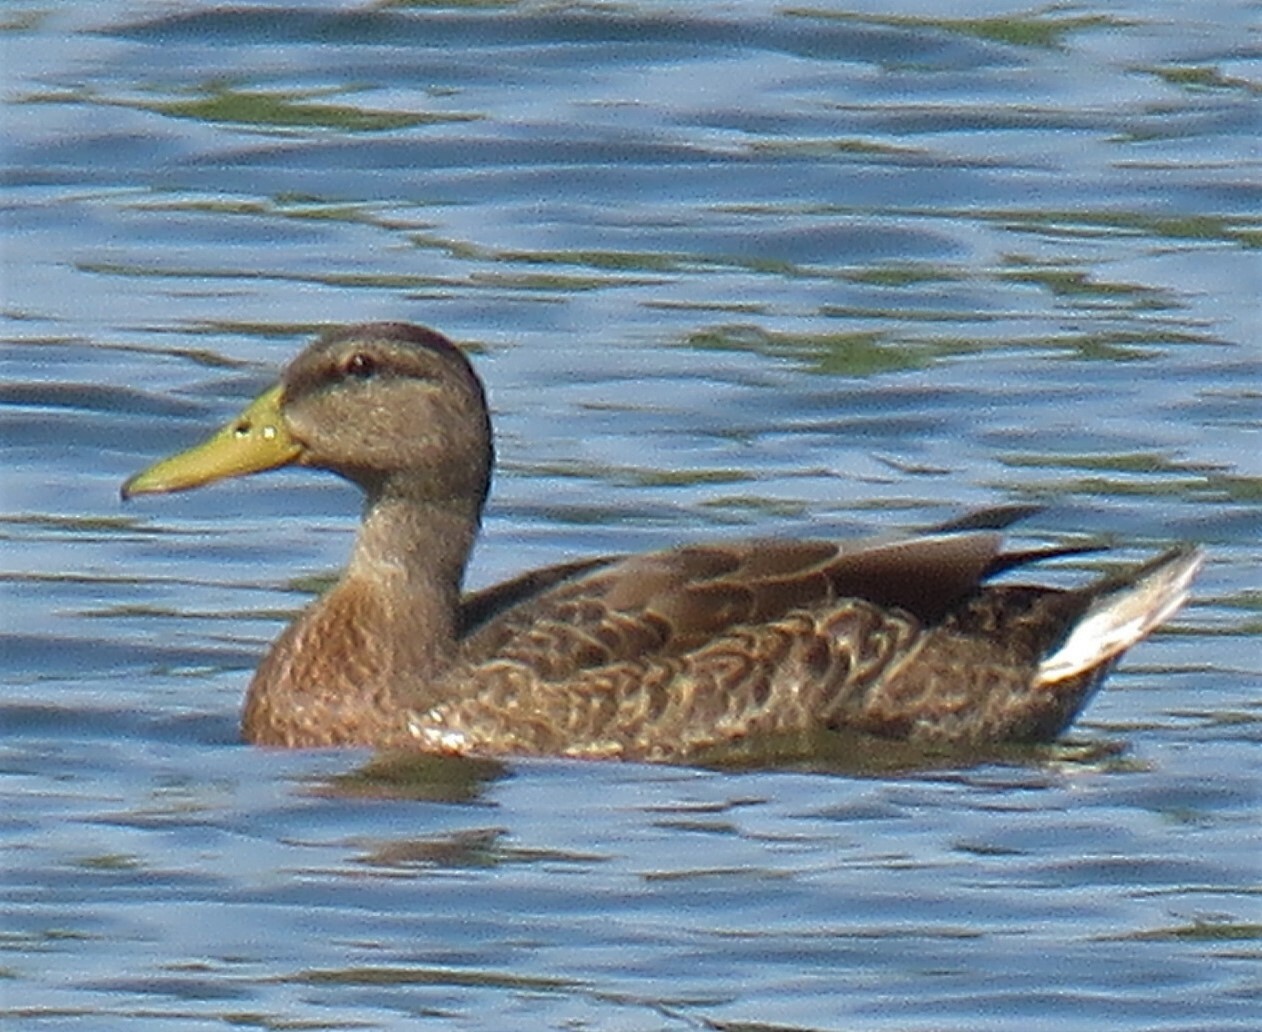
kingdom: Animalia
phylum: Chordata
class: Aves
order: Anseriformes
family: Anatidae
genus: Anas
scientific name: Anas platyrhynchos
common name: Mallard
